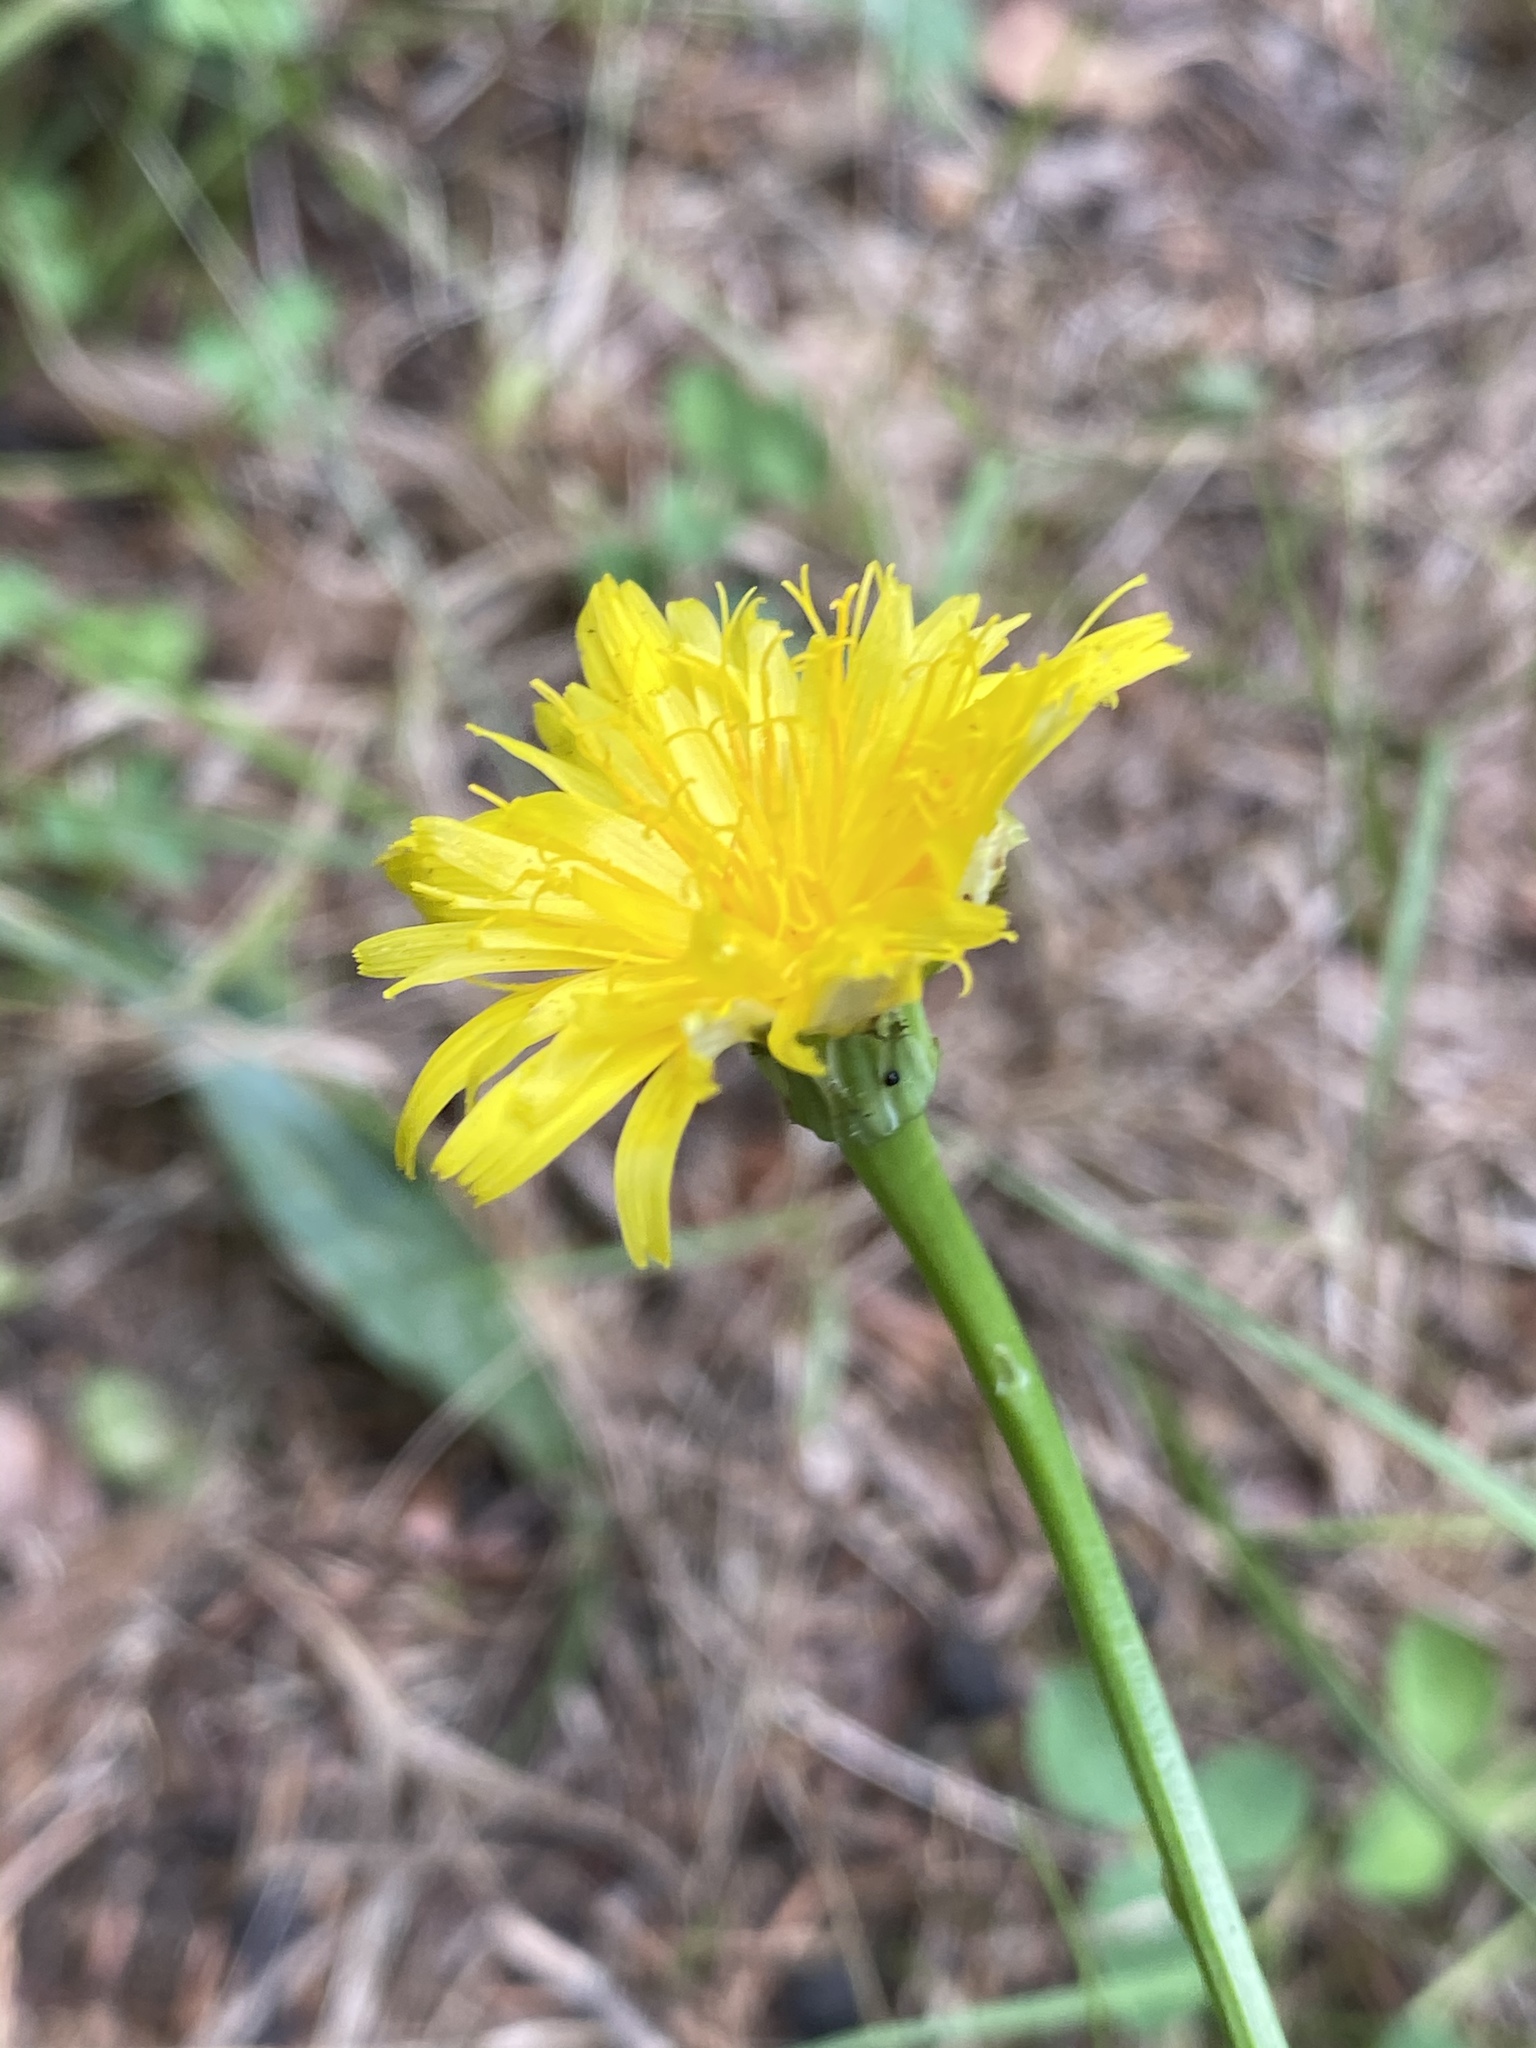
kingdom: Plantae
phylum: Tracheophyta
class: Magnoliopsida
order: Asterales
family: Asteraceae
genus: Hypochaeris
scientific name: Hypochaeris radicata
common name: Flatweed
